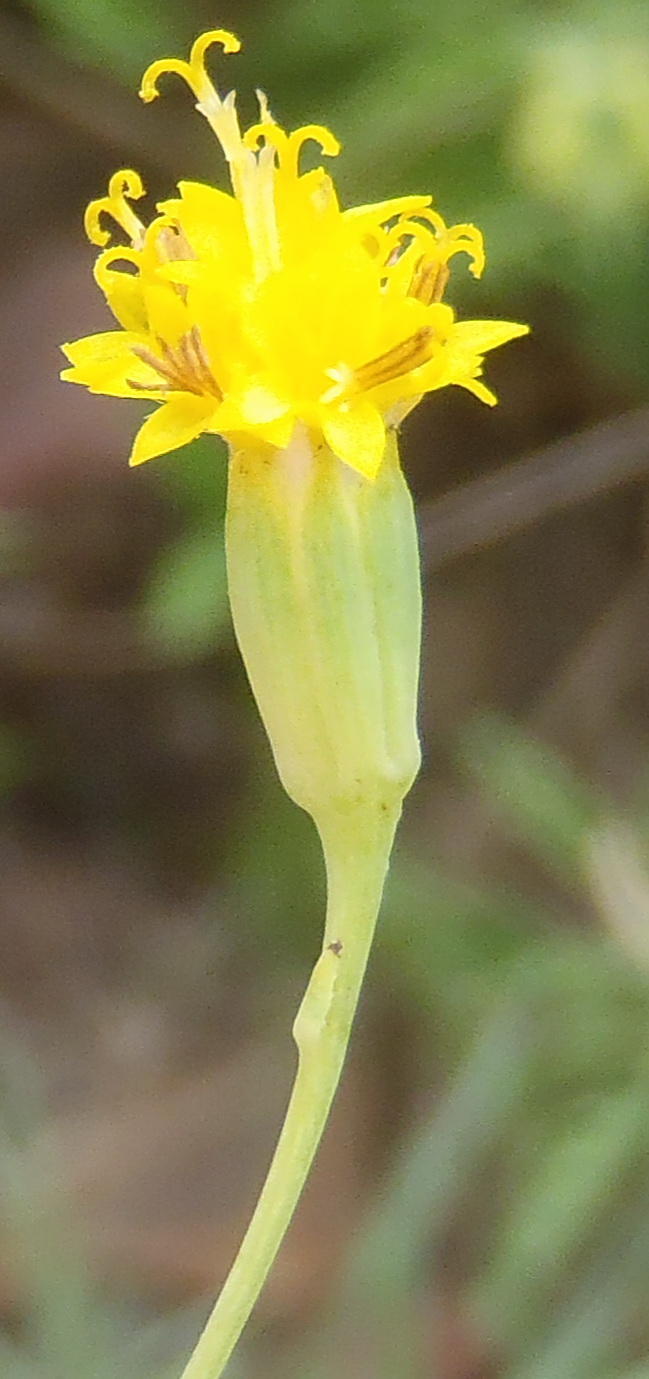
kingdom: Plantae
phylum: Tracheophyta
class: Magnoliopsida
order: Asterales
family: Asteraceae
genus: Senecio
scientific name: Senecio venosus
